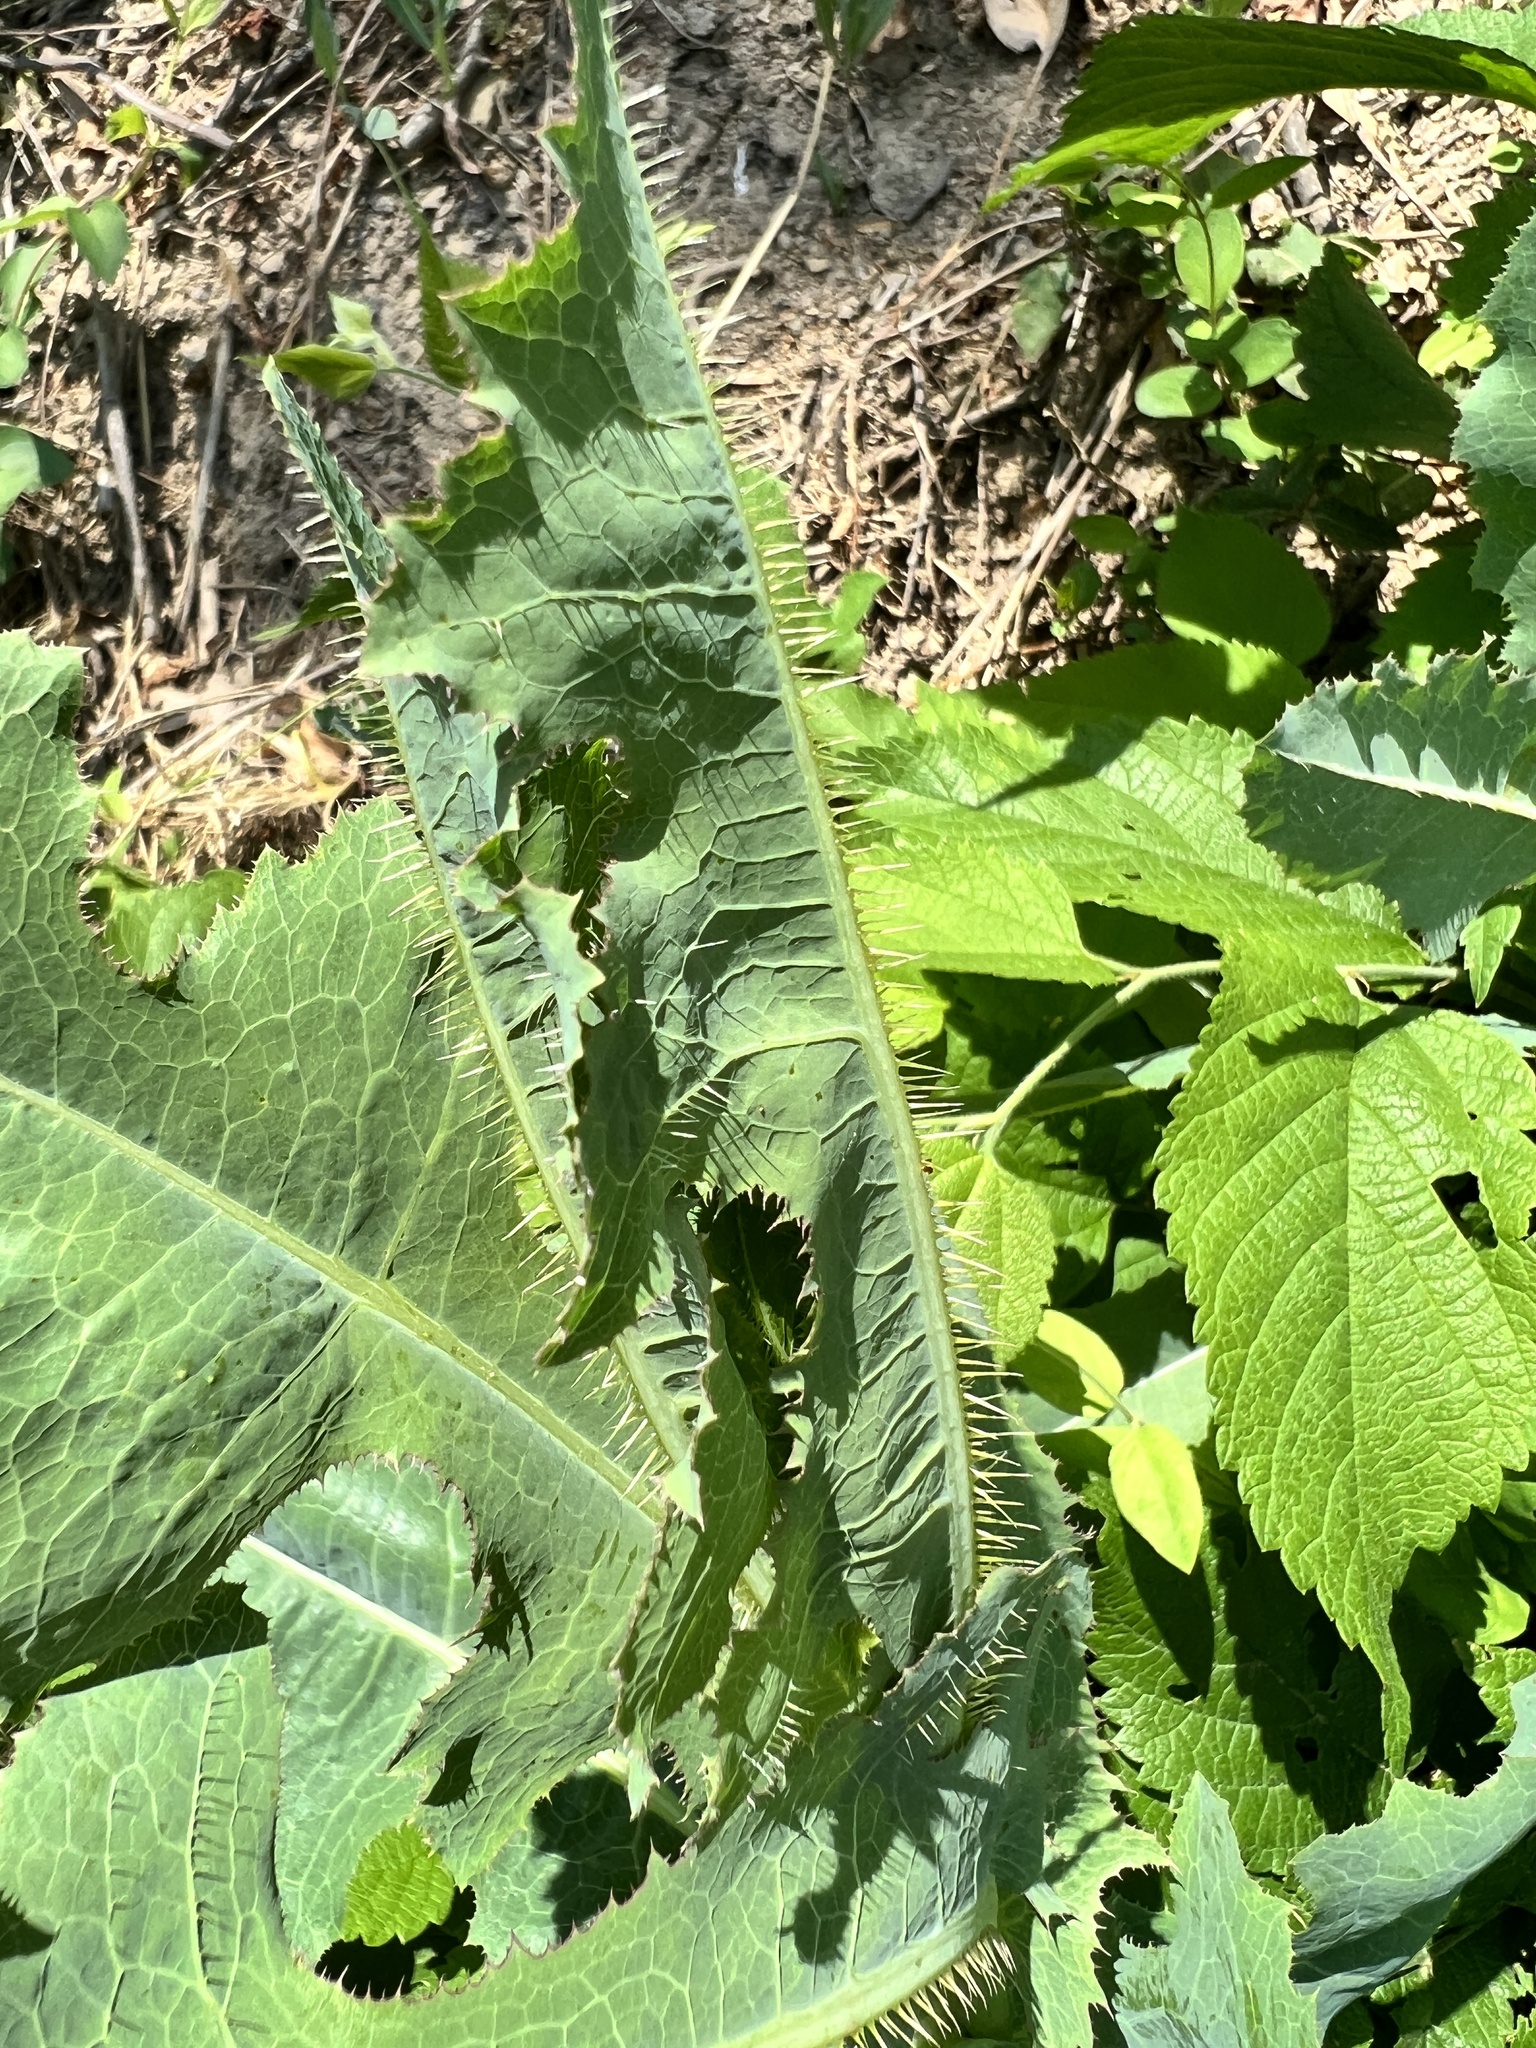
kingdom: Plantae
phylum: Tracheophyta
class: Magnoliopsida
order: Asterales
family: Asteraceae
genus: Lactuca
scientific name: Lactuca serriola
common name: Prickly lettuce
